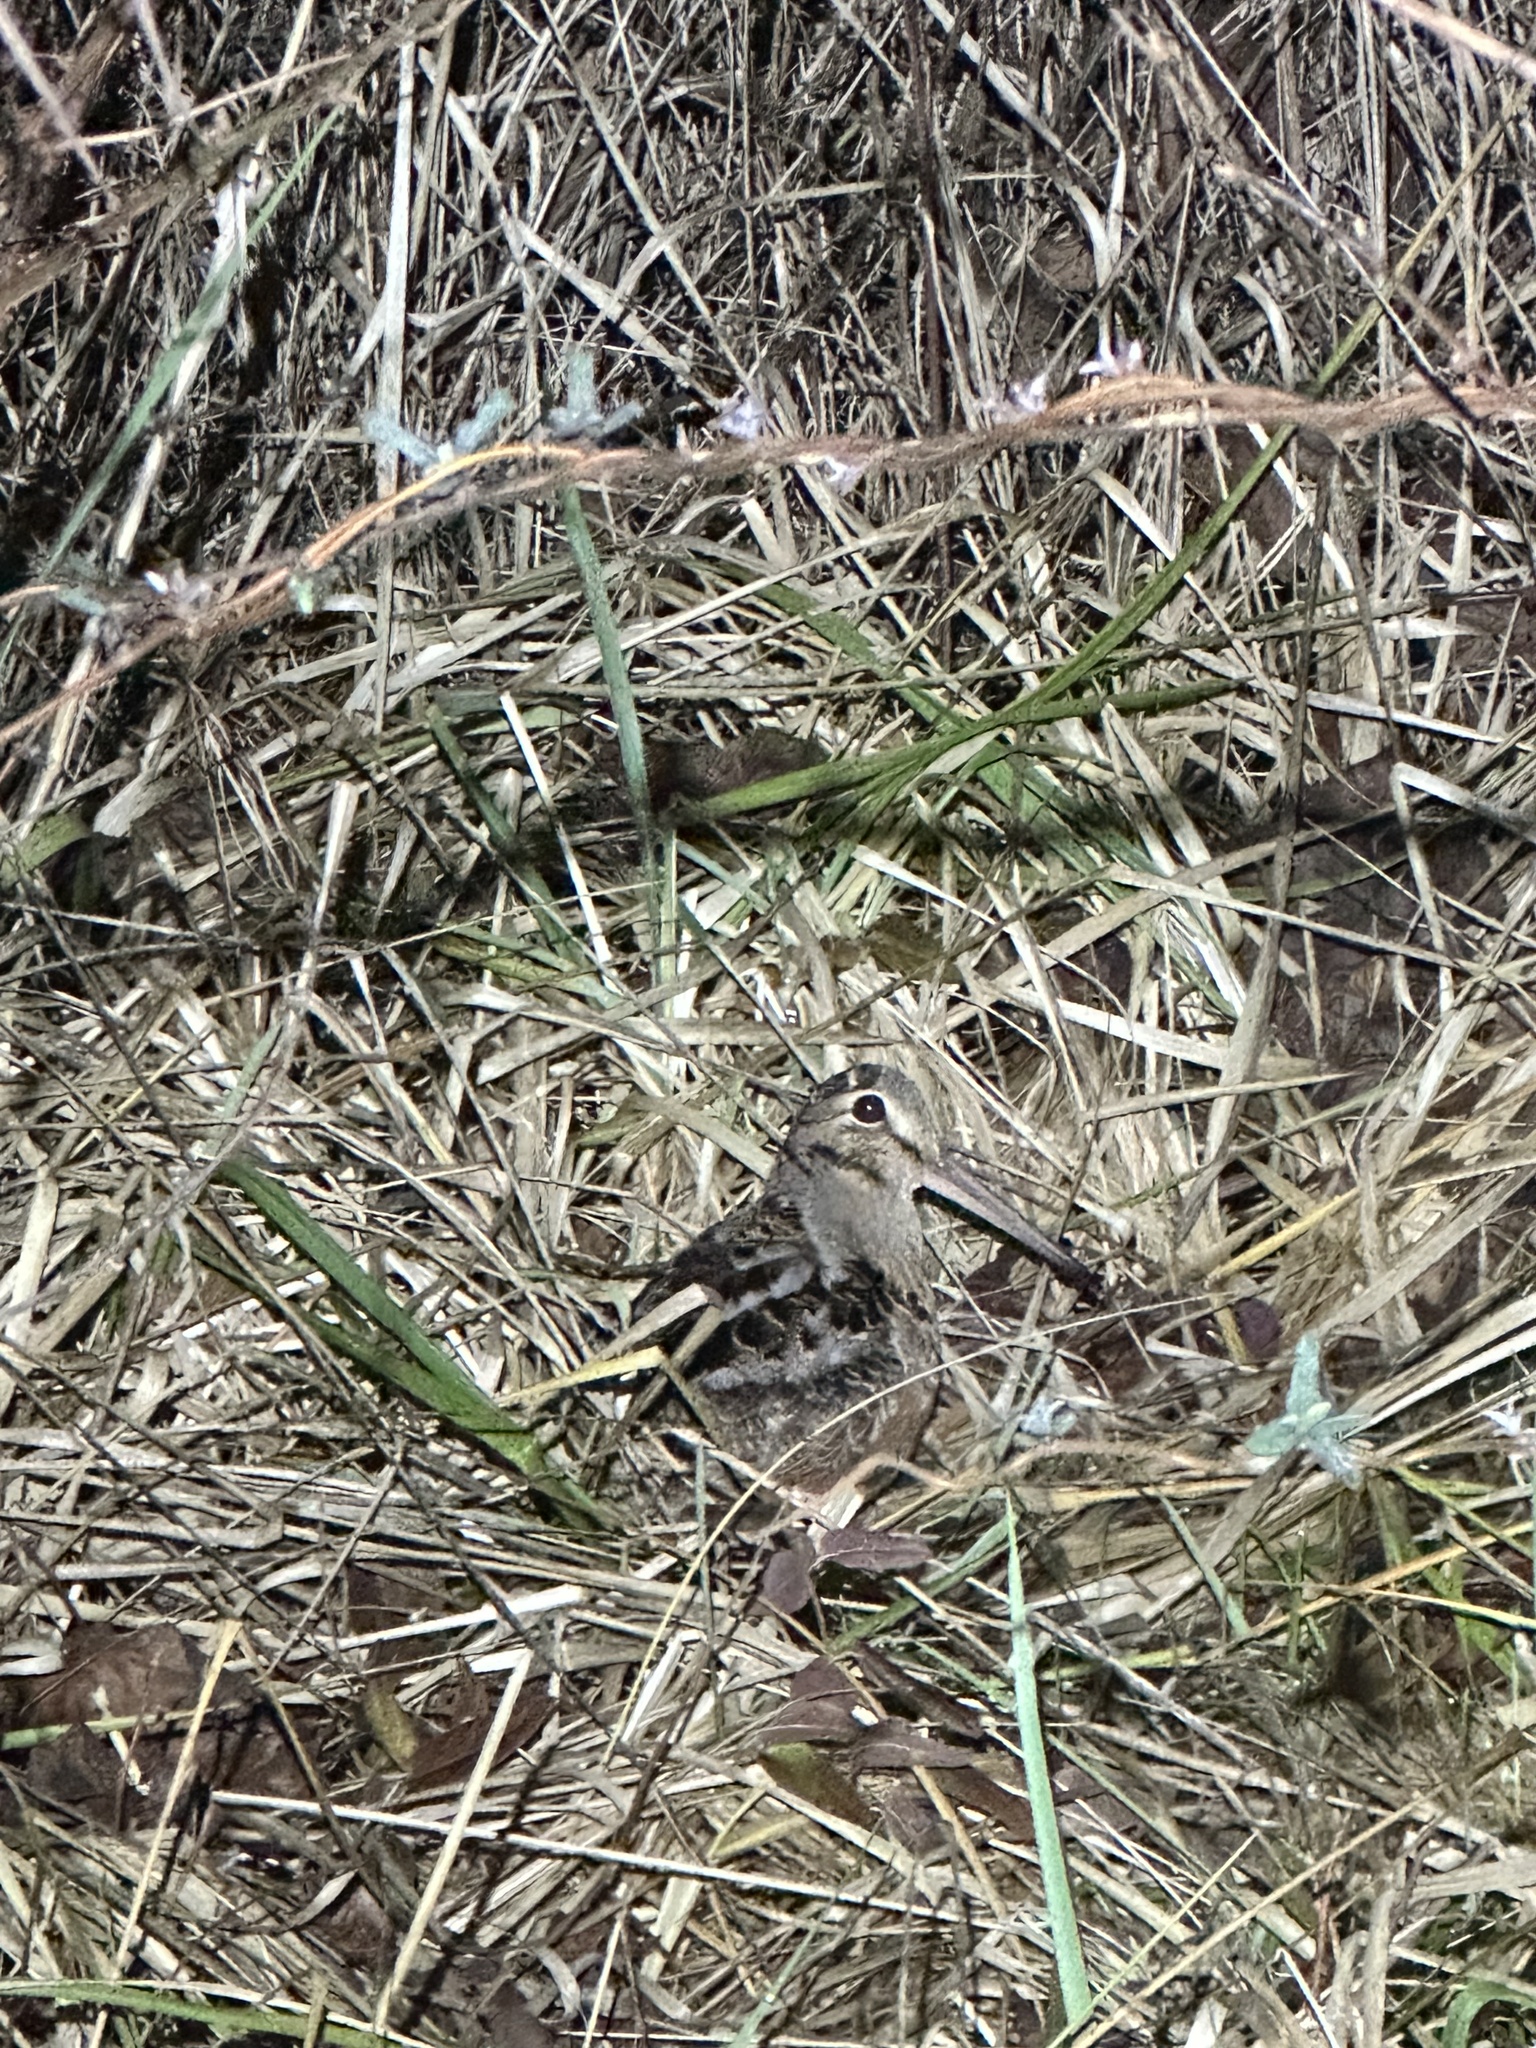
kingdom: Animalia
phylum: Chordata
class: Aves
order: Charadriiformes
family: Scolopacidae
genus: Scolopax
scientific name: Scolopax minor
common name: American woodcock
